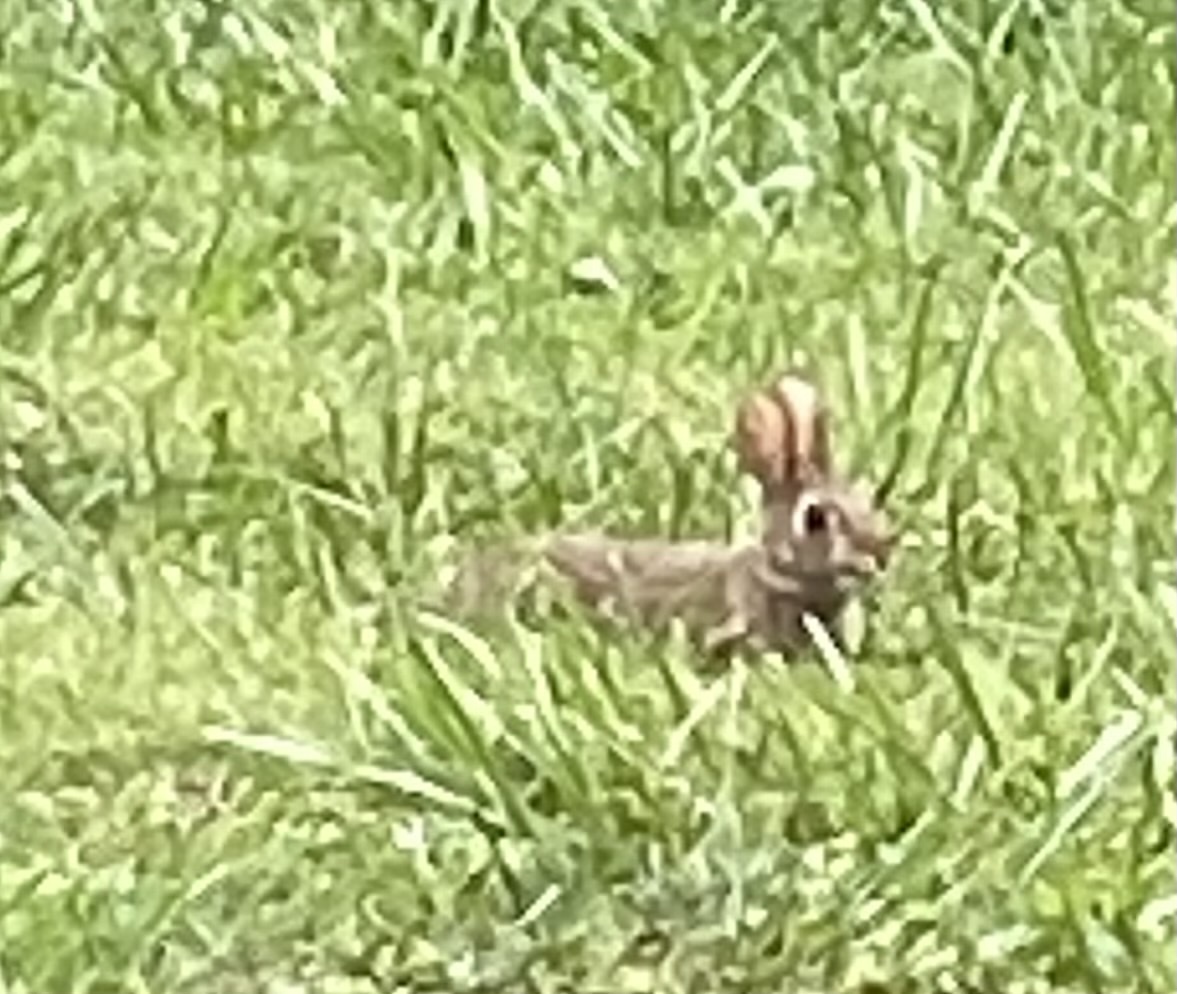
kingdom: Animalia
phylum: Chordata
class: Mammalia
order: Lagomorpha
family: Leporidae
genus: Sylvilagus
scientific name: Sylvilagus floridanus
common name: Eastern cottontail
